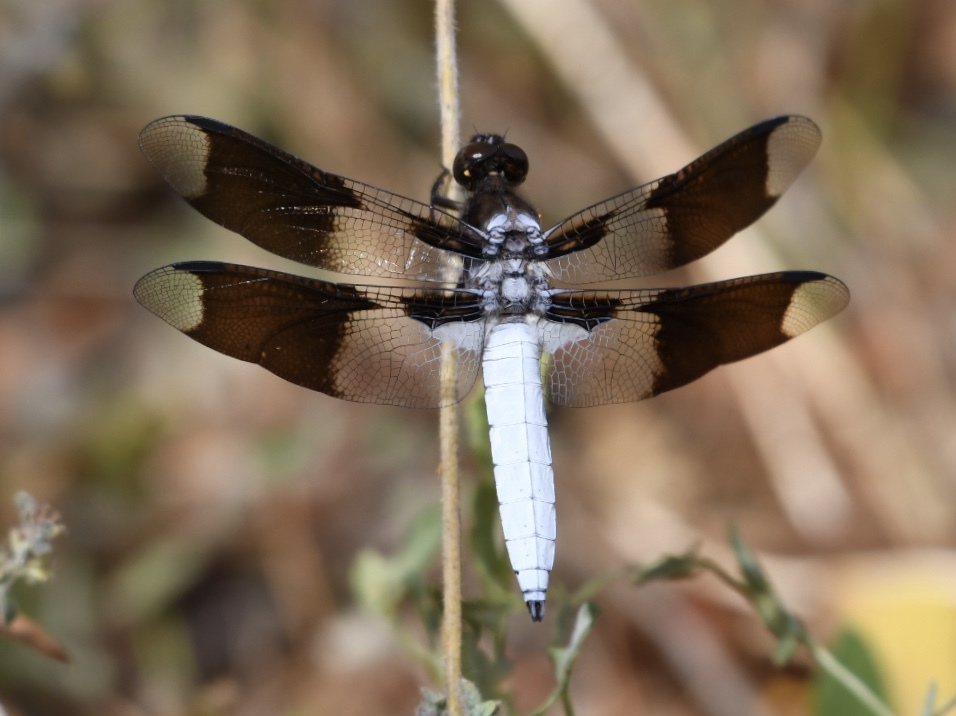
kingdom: Animalia
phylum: Arthropoda
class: Insecta
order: Odonata
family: Libellulidae
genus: Plathemis
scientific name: Plathemis lydia
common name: Common whitetail
